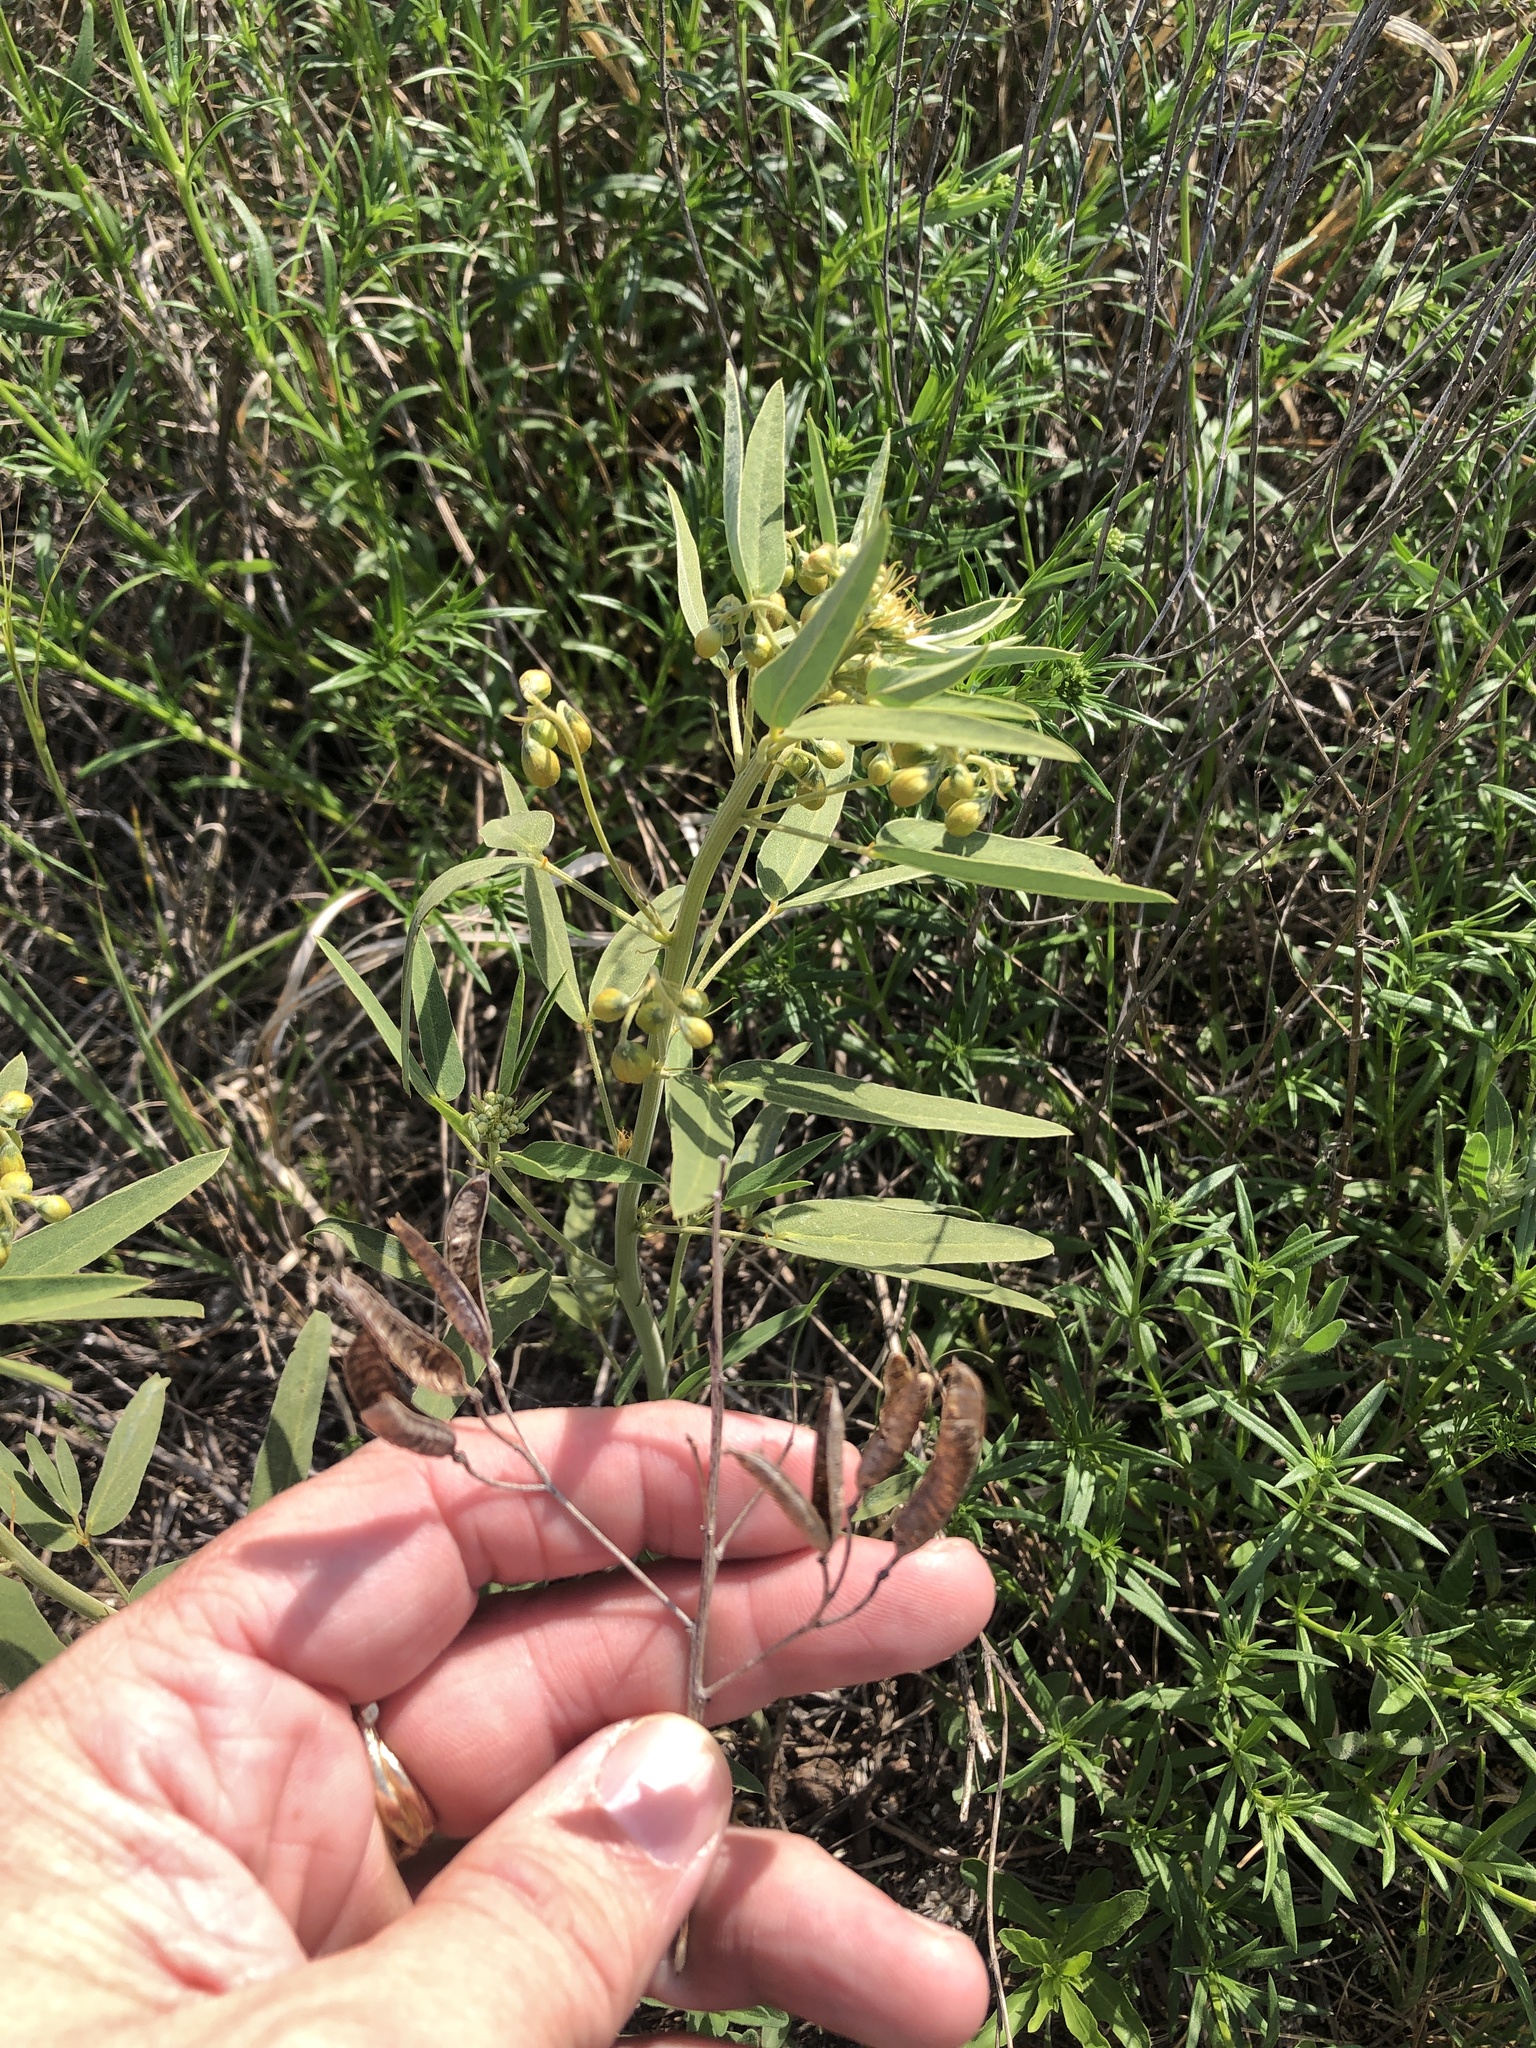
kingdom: Plantae
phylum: Tracheophyta
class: Magnoliopsida
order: Fabales
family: Fabaceae
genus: Senna
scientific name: Senna roemeriana
